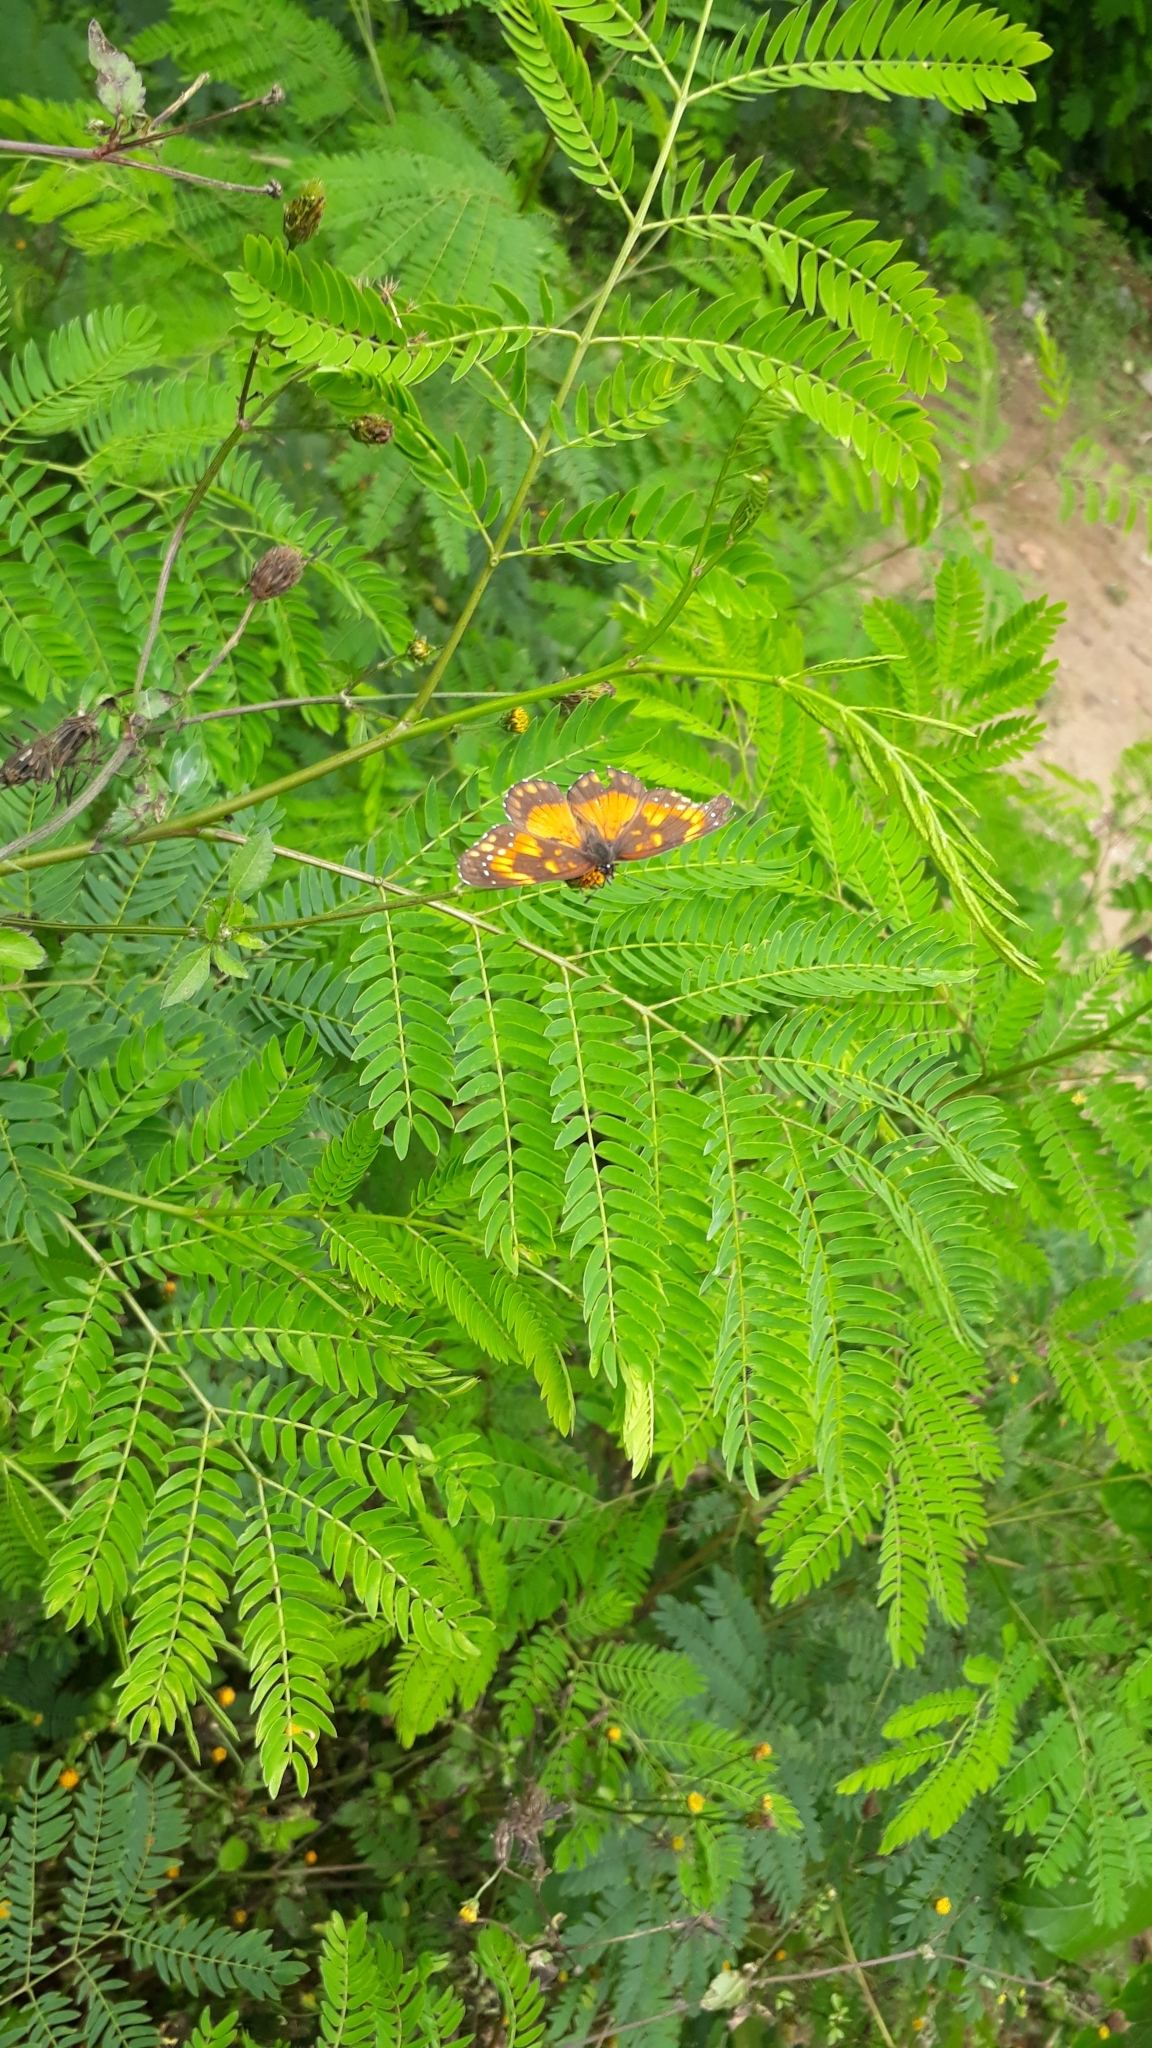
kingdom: Animalia
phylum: Arthropoda
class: Insecta
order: Lepidoptera
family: Nymphalidae
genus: Chlosyne
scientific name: Chlosyne lacinia
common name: Bordered patch
